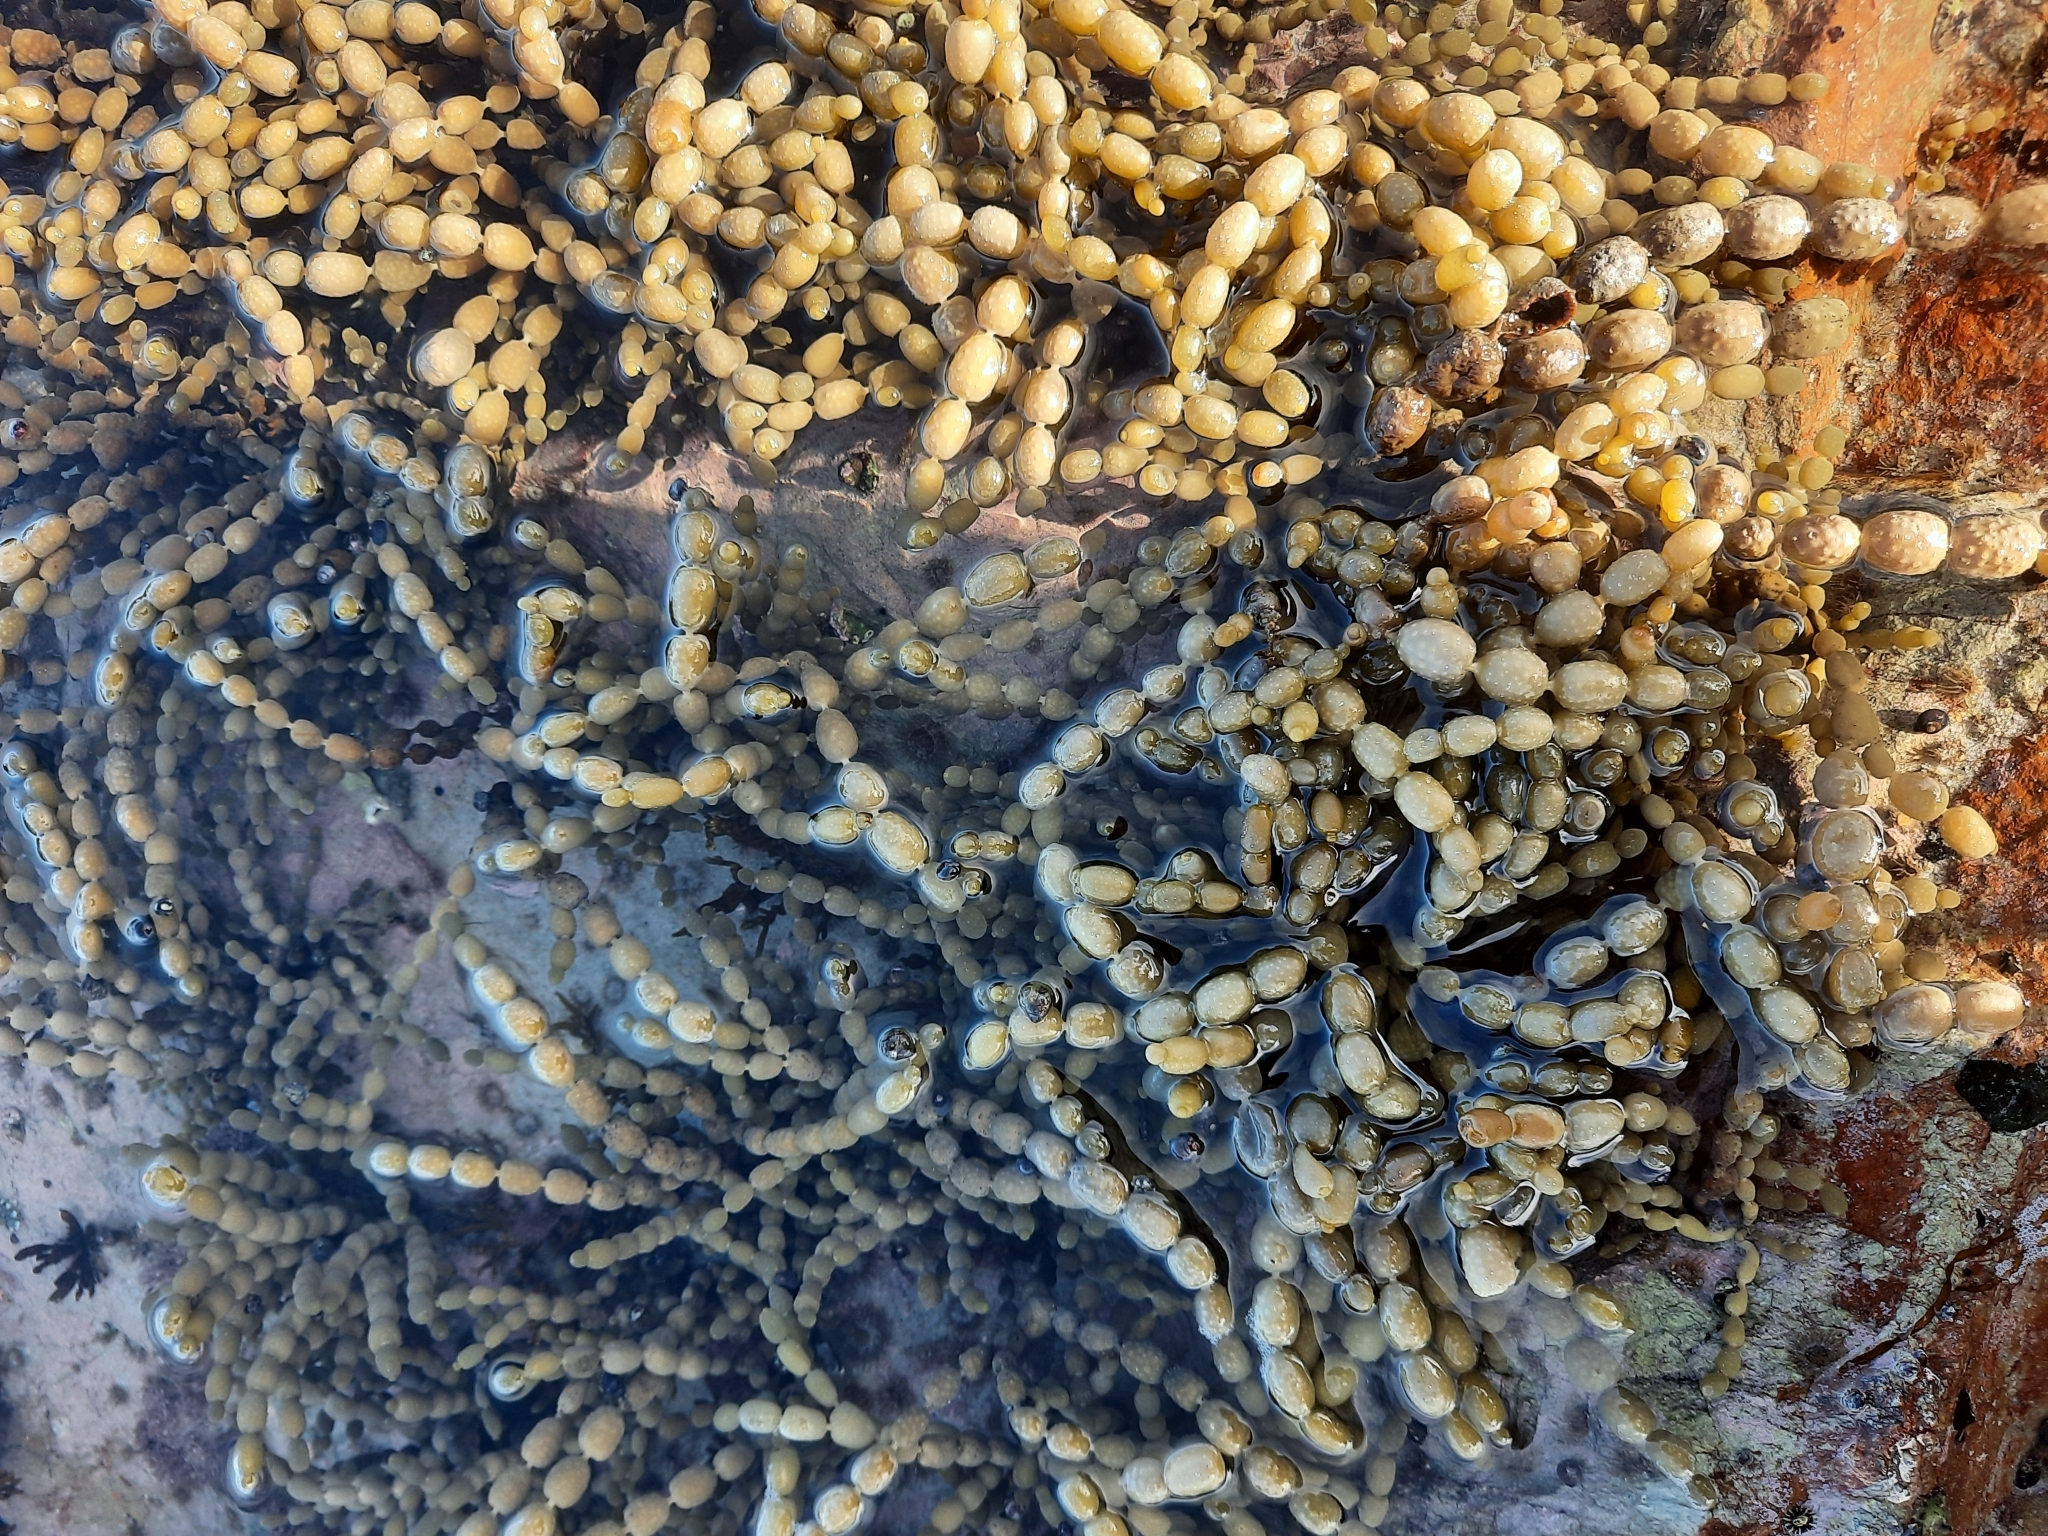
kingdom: Chromista
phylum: Ochrophyta
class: Phaeophyceae
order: Fucales
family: Hormosiraceae
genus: Hormosira
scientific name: Hormosira banksii
